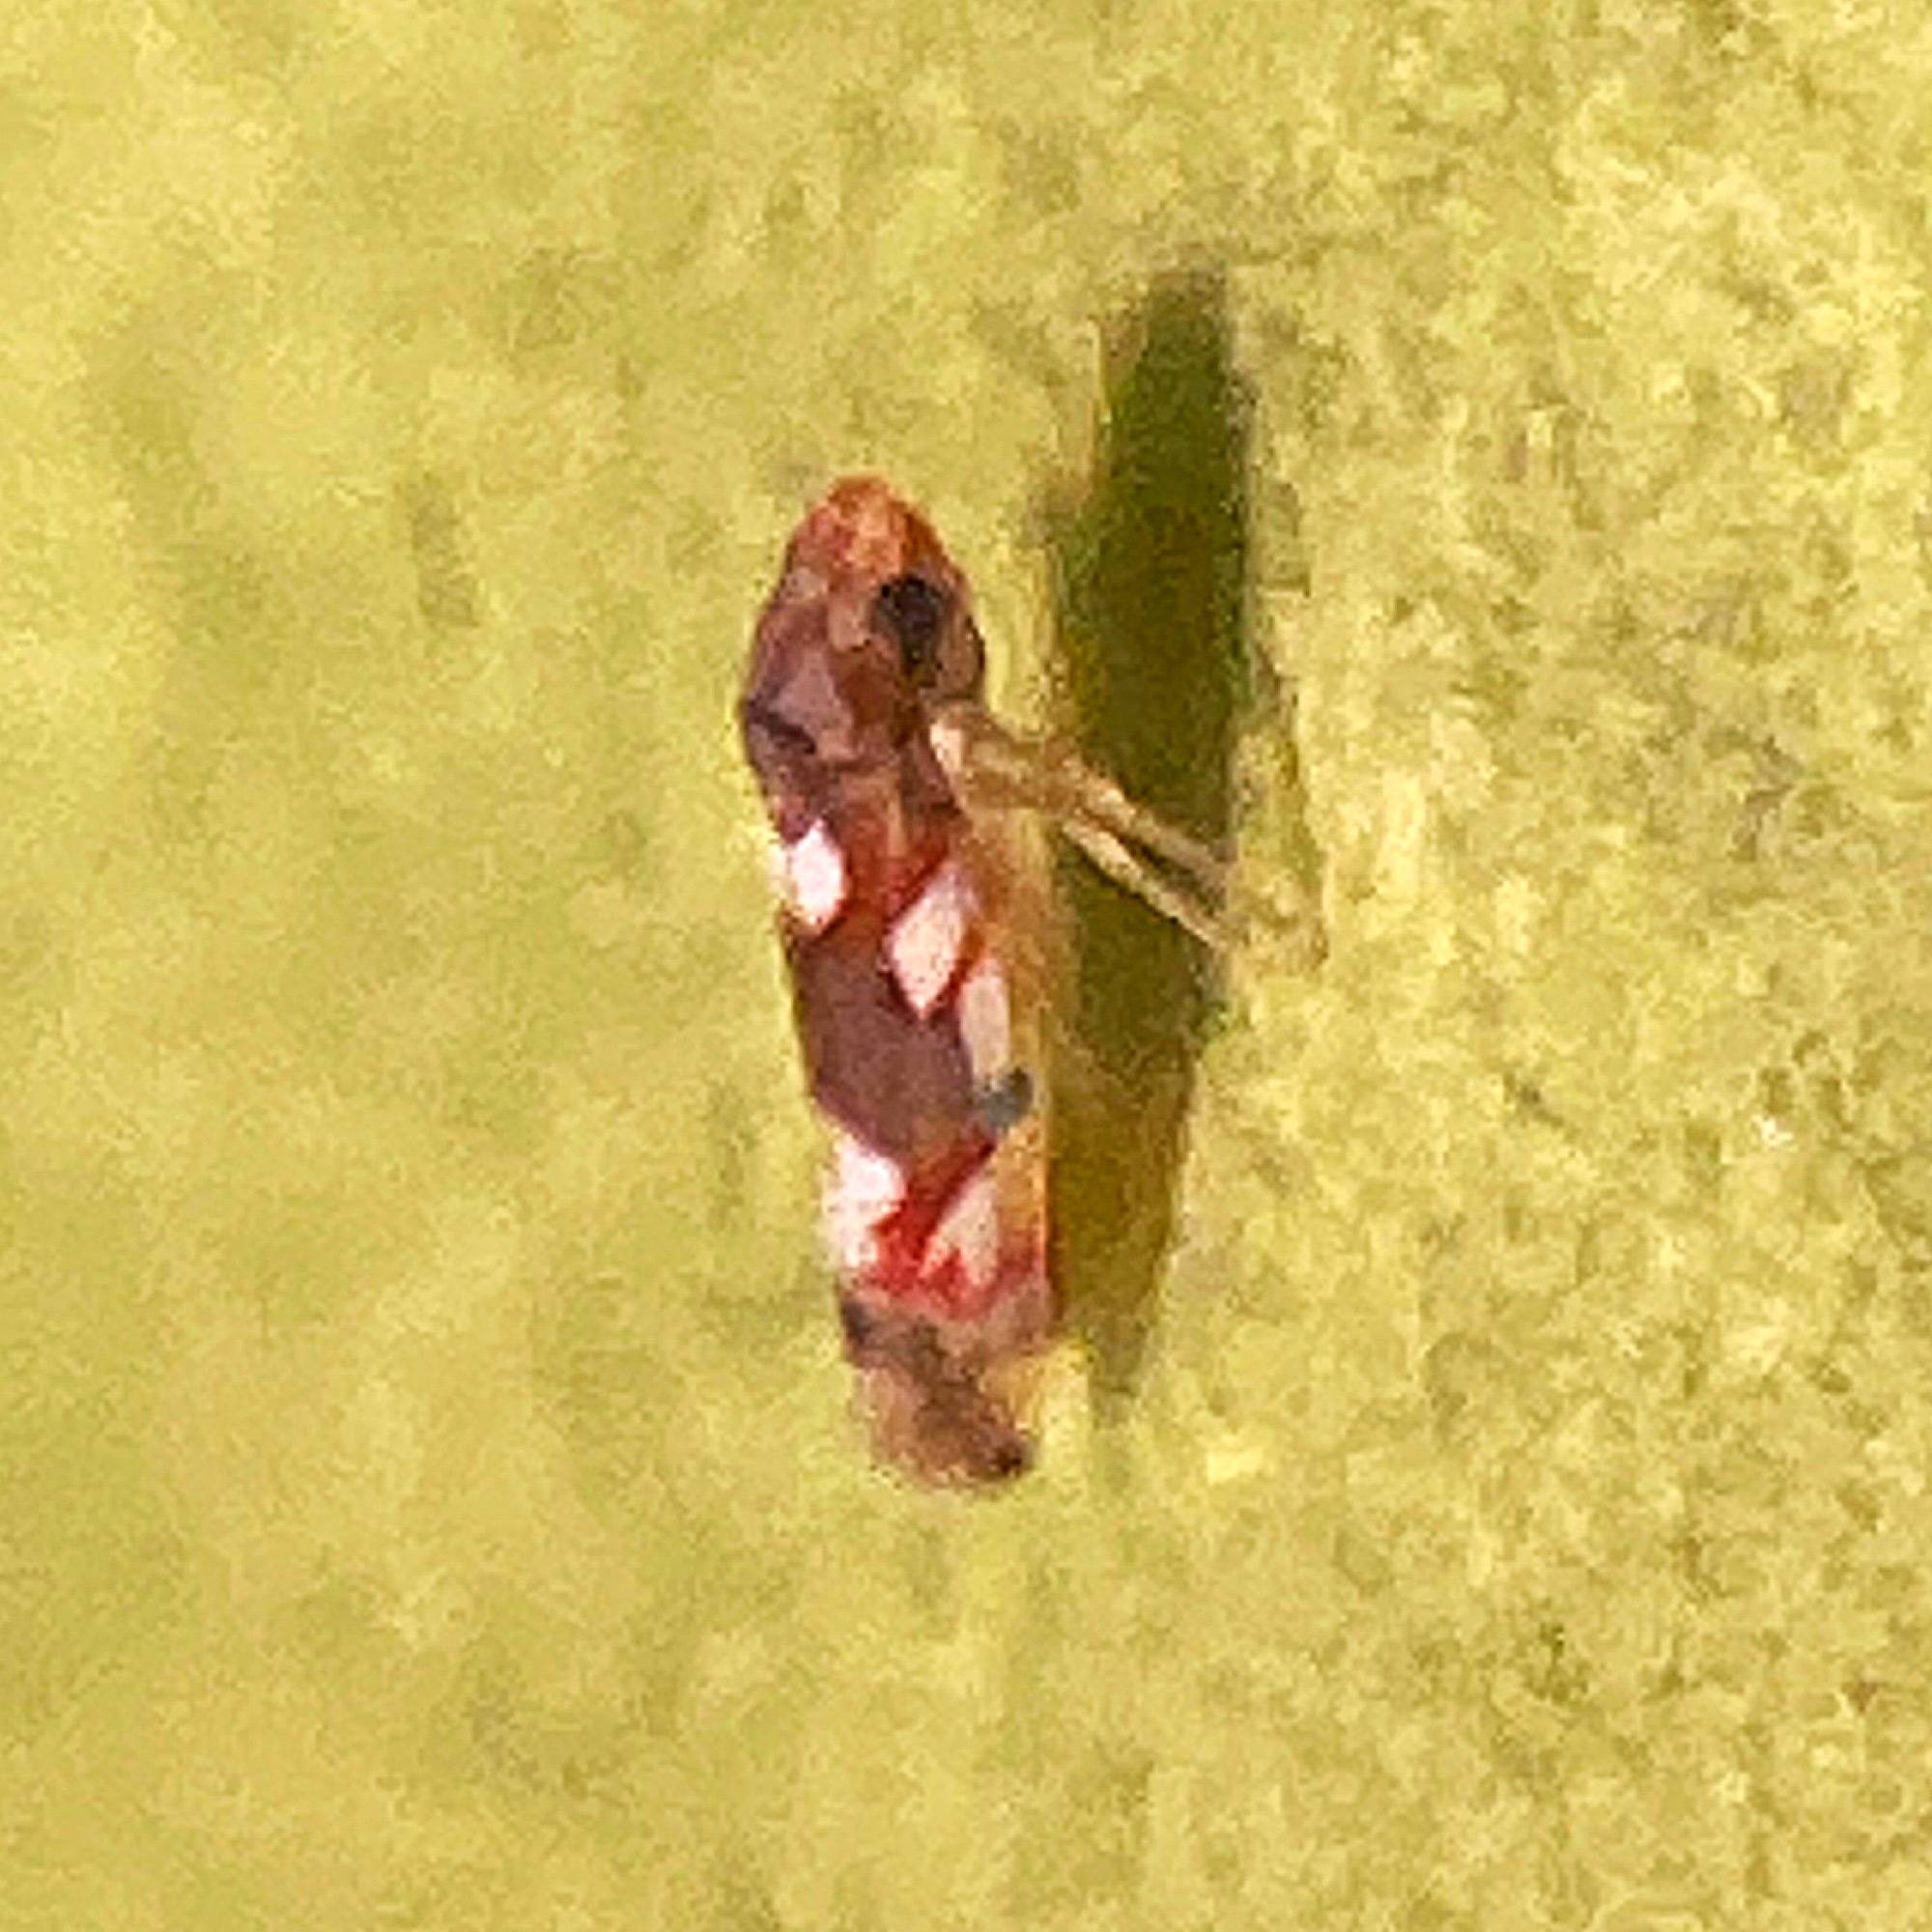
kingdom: Animalia
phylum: Arthropoda
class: Insecta
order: Hemiptera
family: Cicadellidae
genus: Erythroneura
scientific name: Erythroneura elegans
